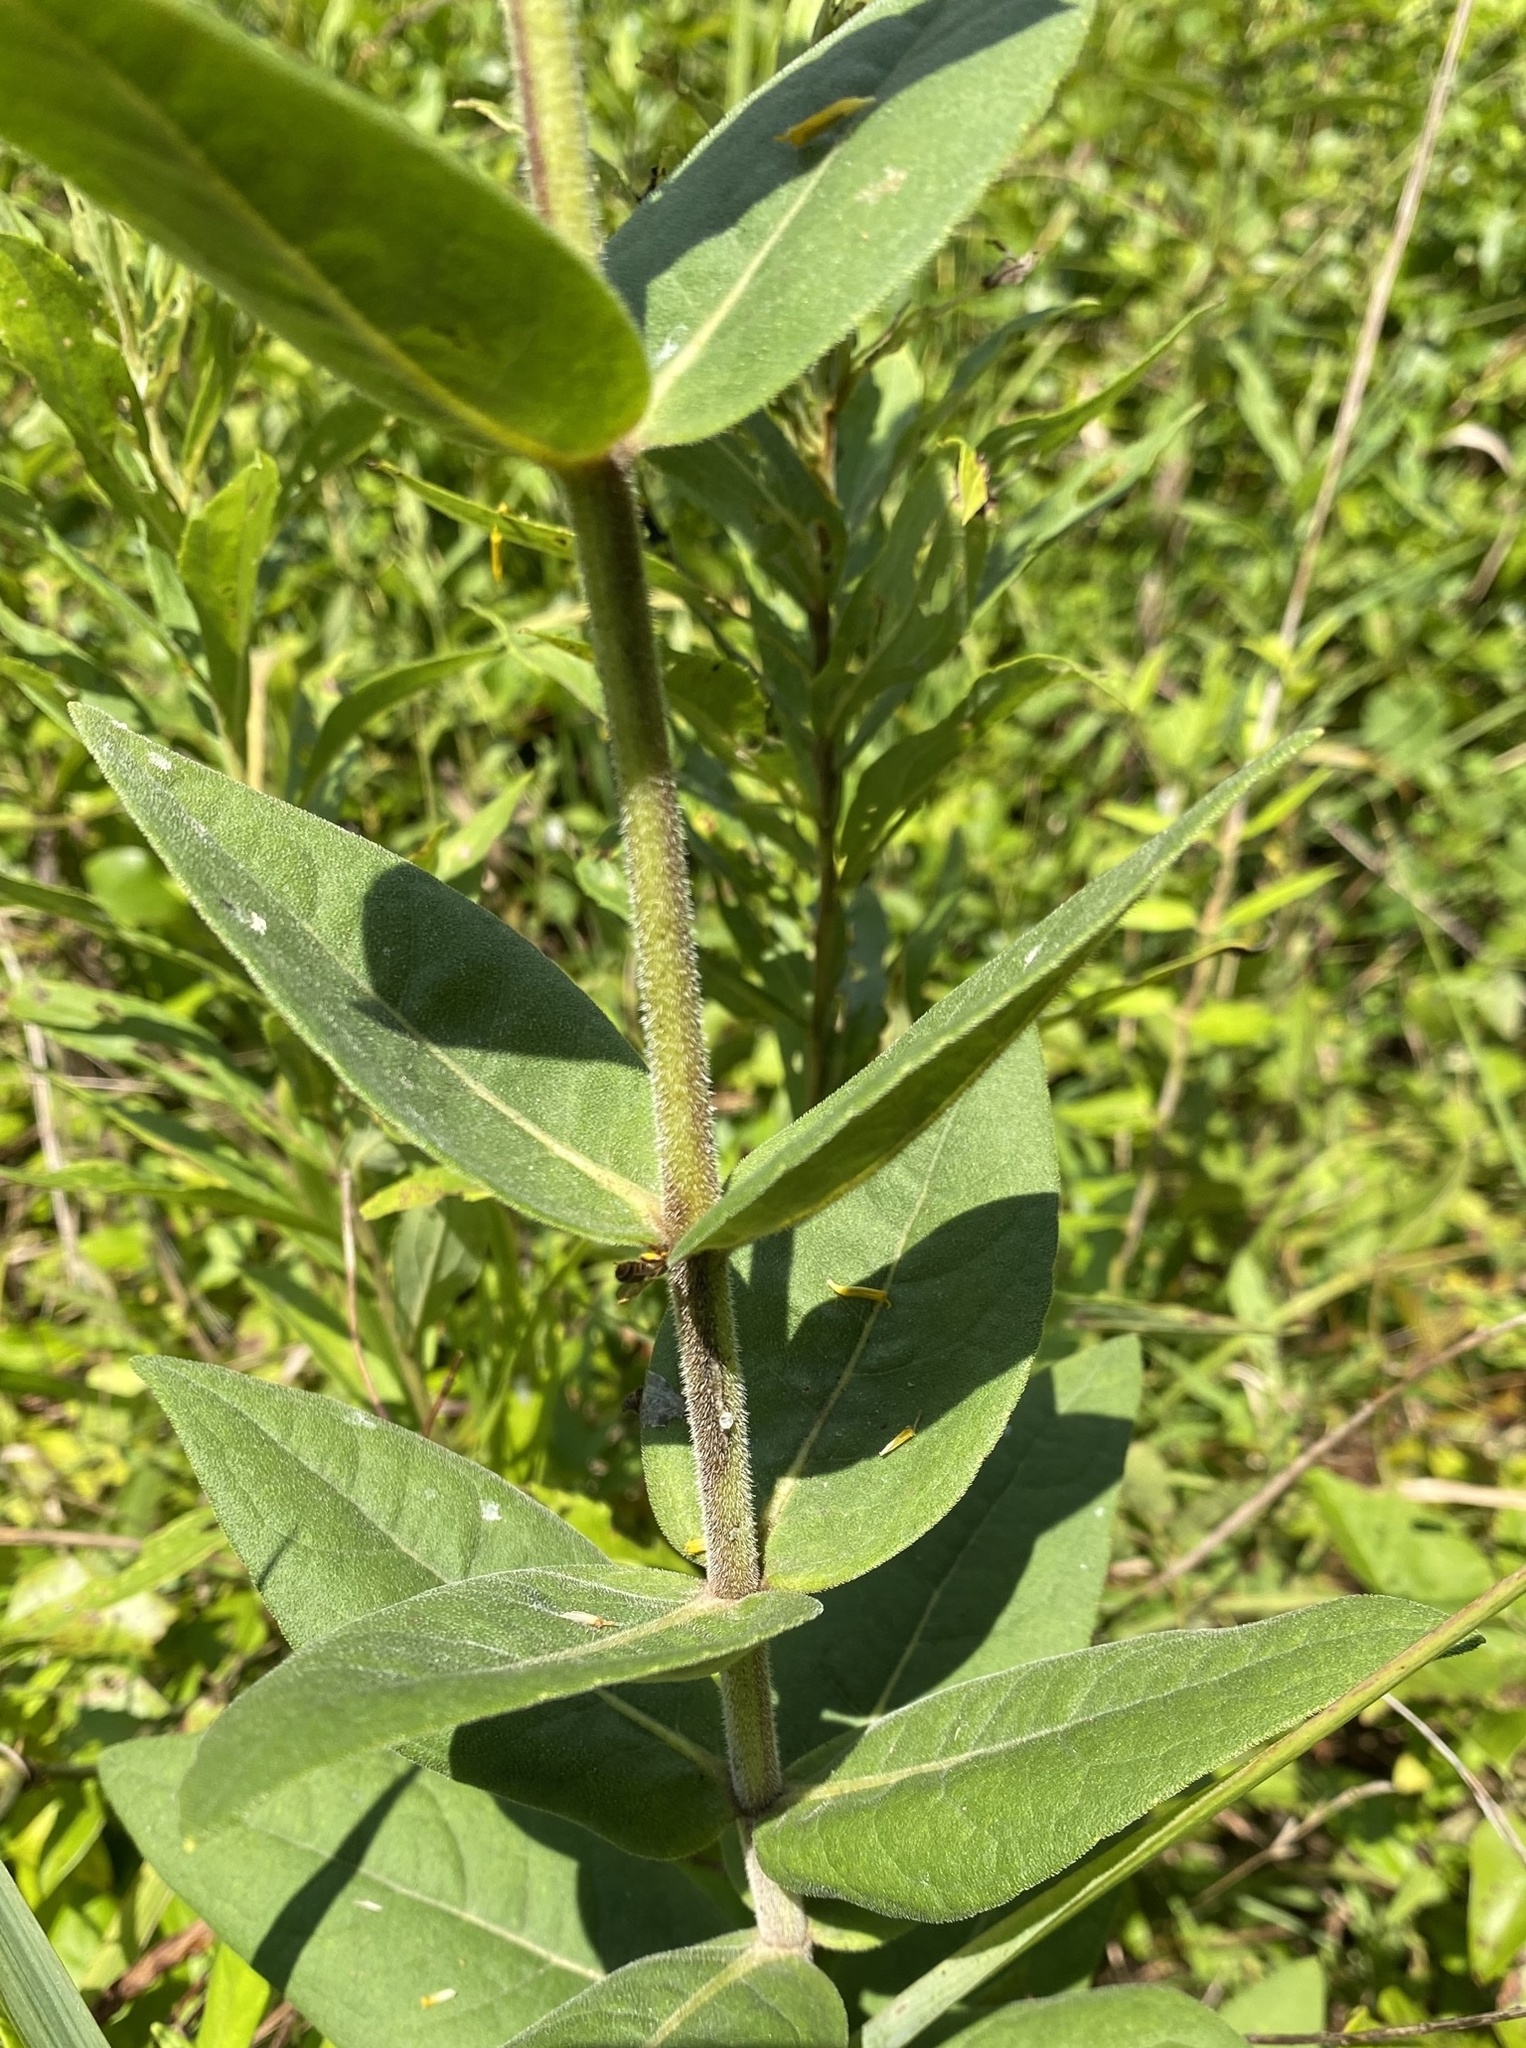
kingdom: Plantae
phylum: Tracheophyta
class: Magnoliopsida
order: Asterales
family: Asteraceae
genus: Silphium
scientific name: Silphium integrifolium
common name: Whole-leaf rosinweed
